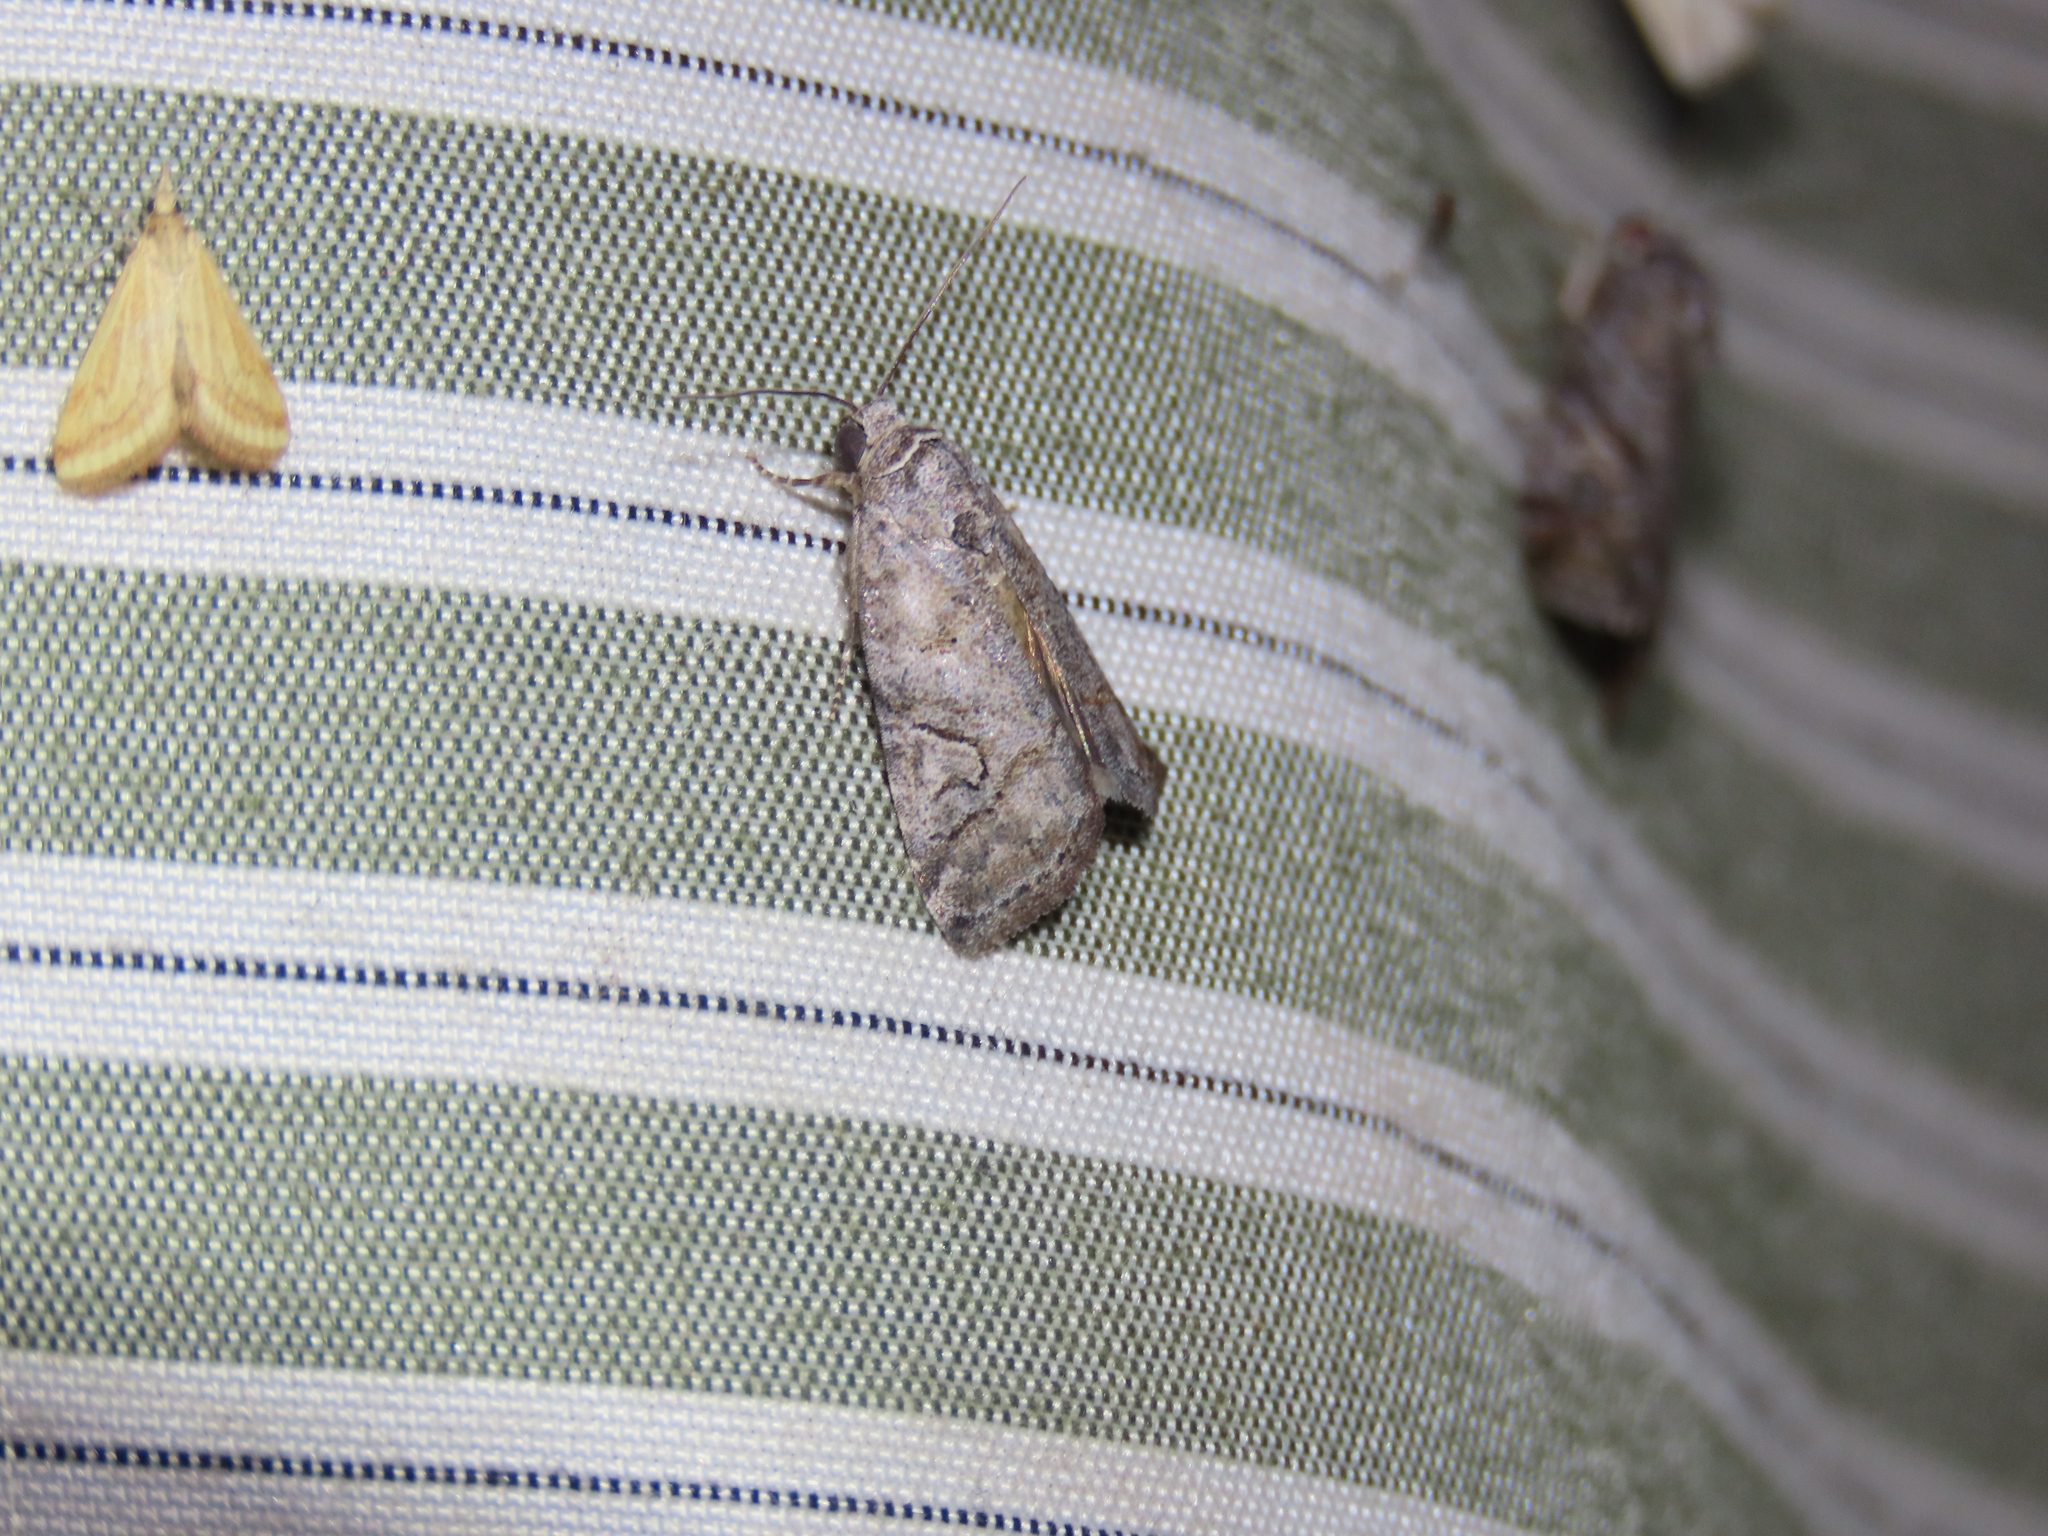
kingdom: Animalia
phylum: Arthropoda
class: Insecta
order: Lepidoptera
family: Noctuidae
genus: Metaponpneumata
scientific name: Metaponpneumata rogenhoferi
